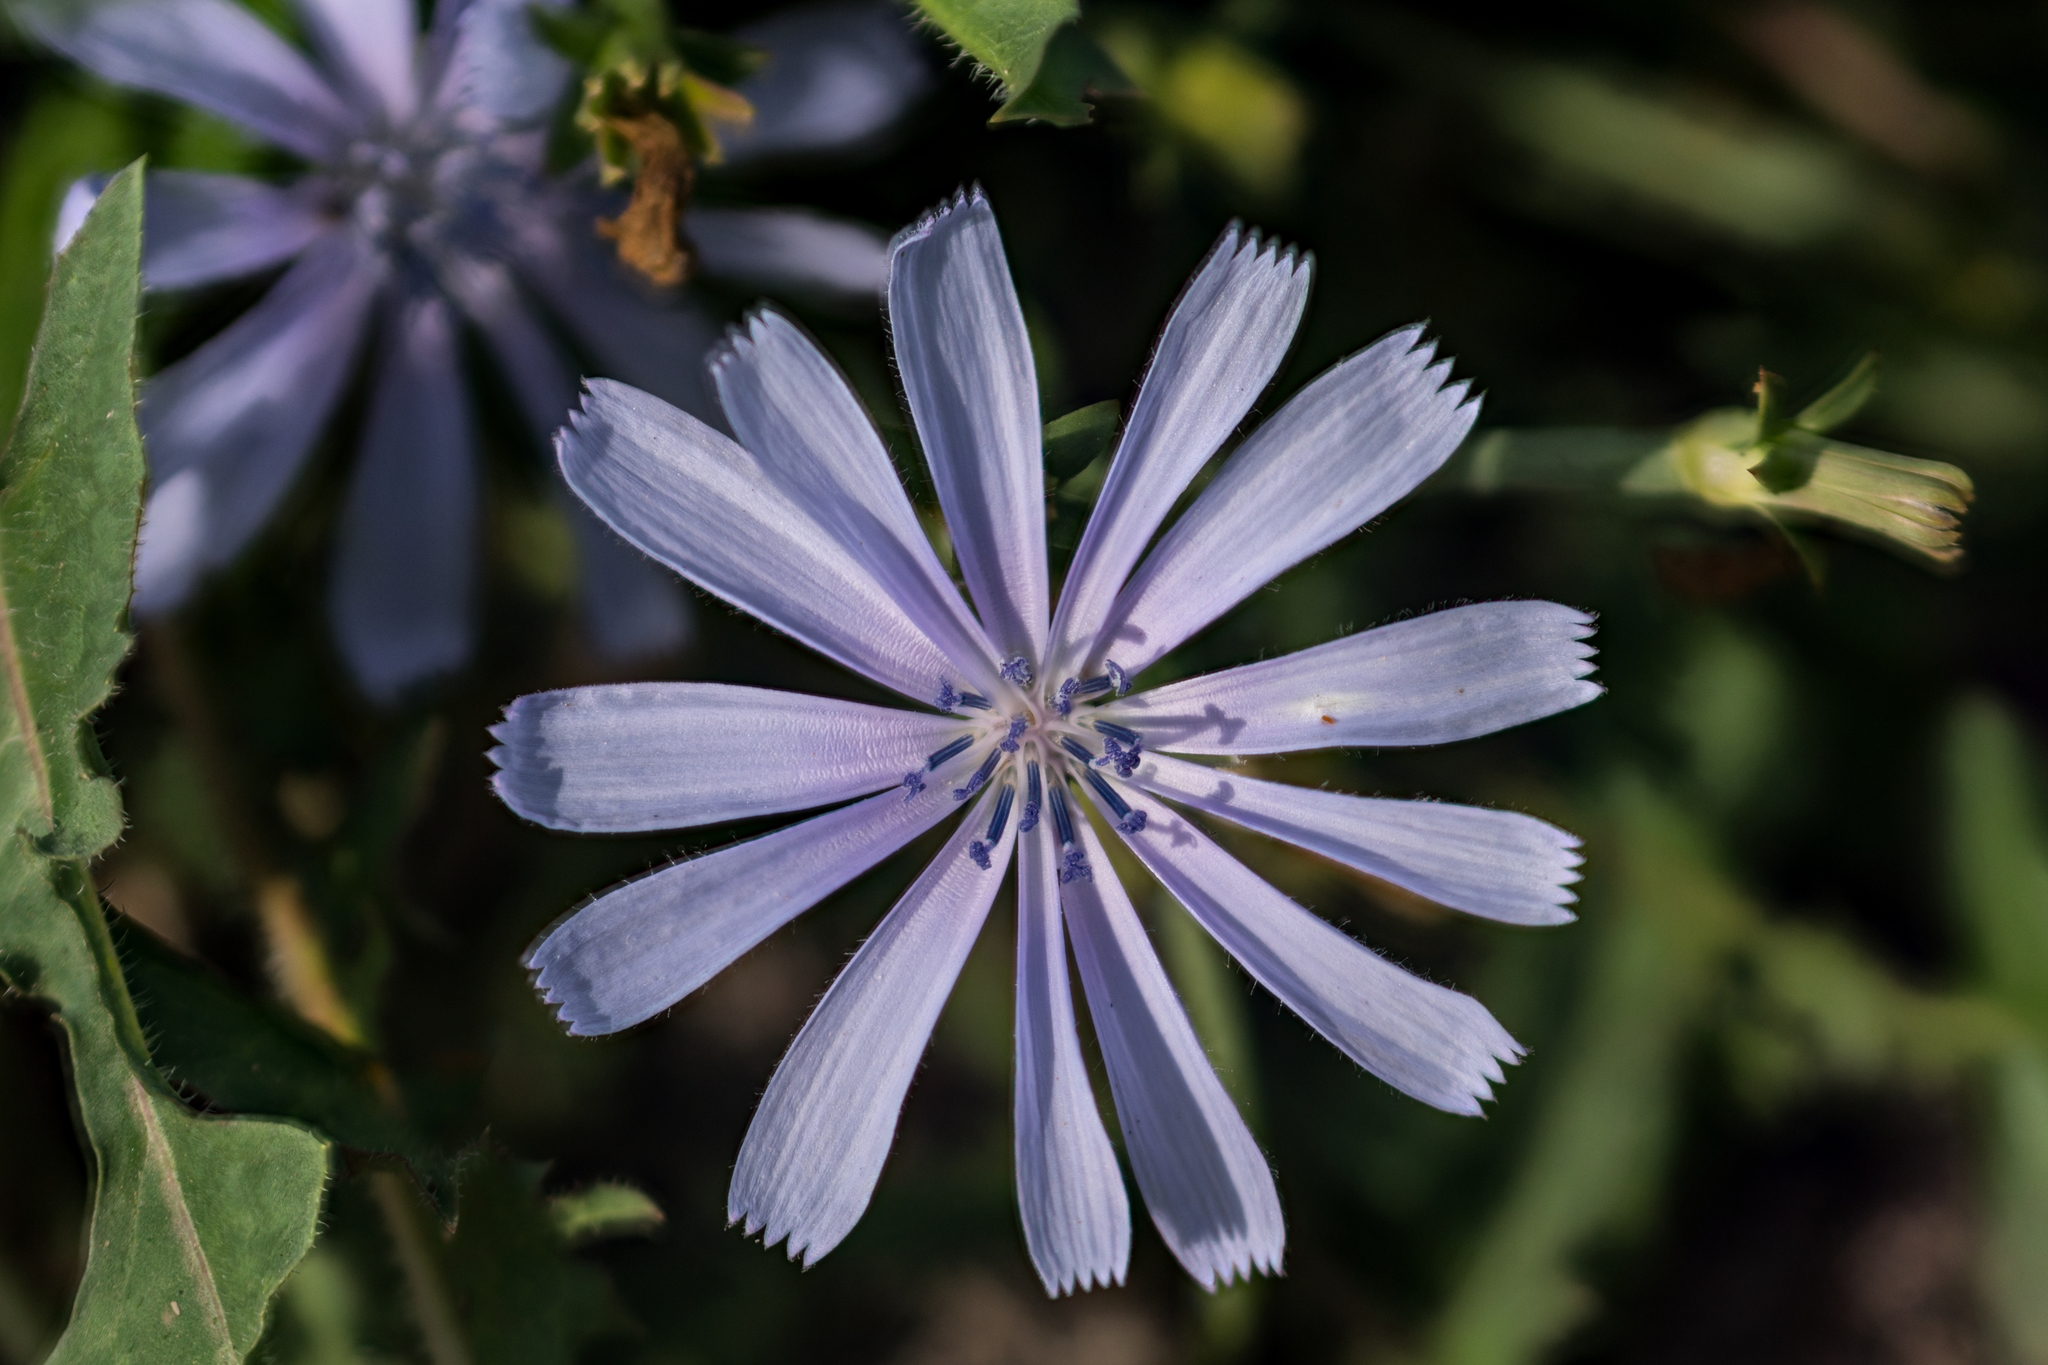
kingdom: Plantae
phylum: Tracheophyta
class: Magnoliopsida
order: Asterales
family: Asteraceae
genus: Cichorium
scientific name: Cichorium intybus
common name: Chicory
